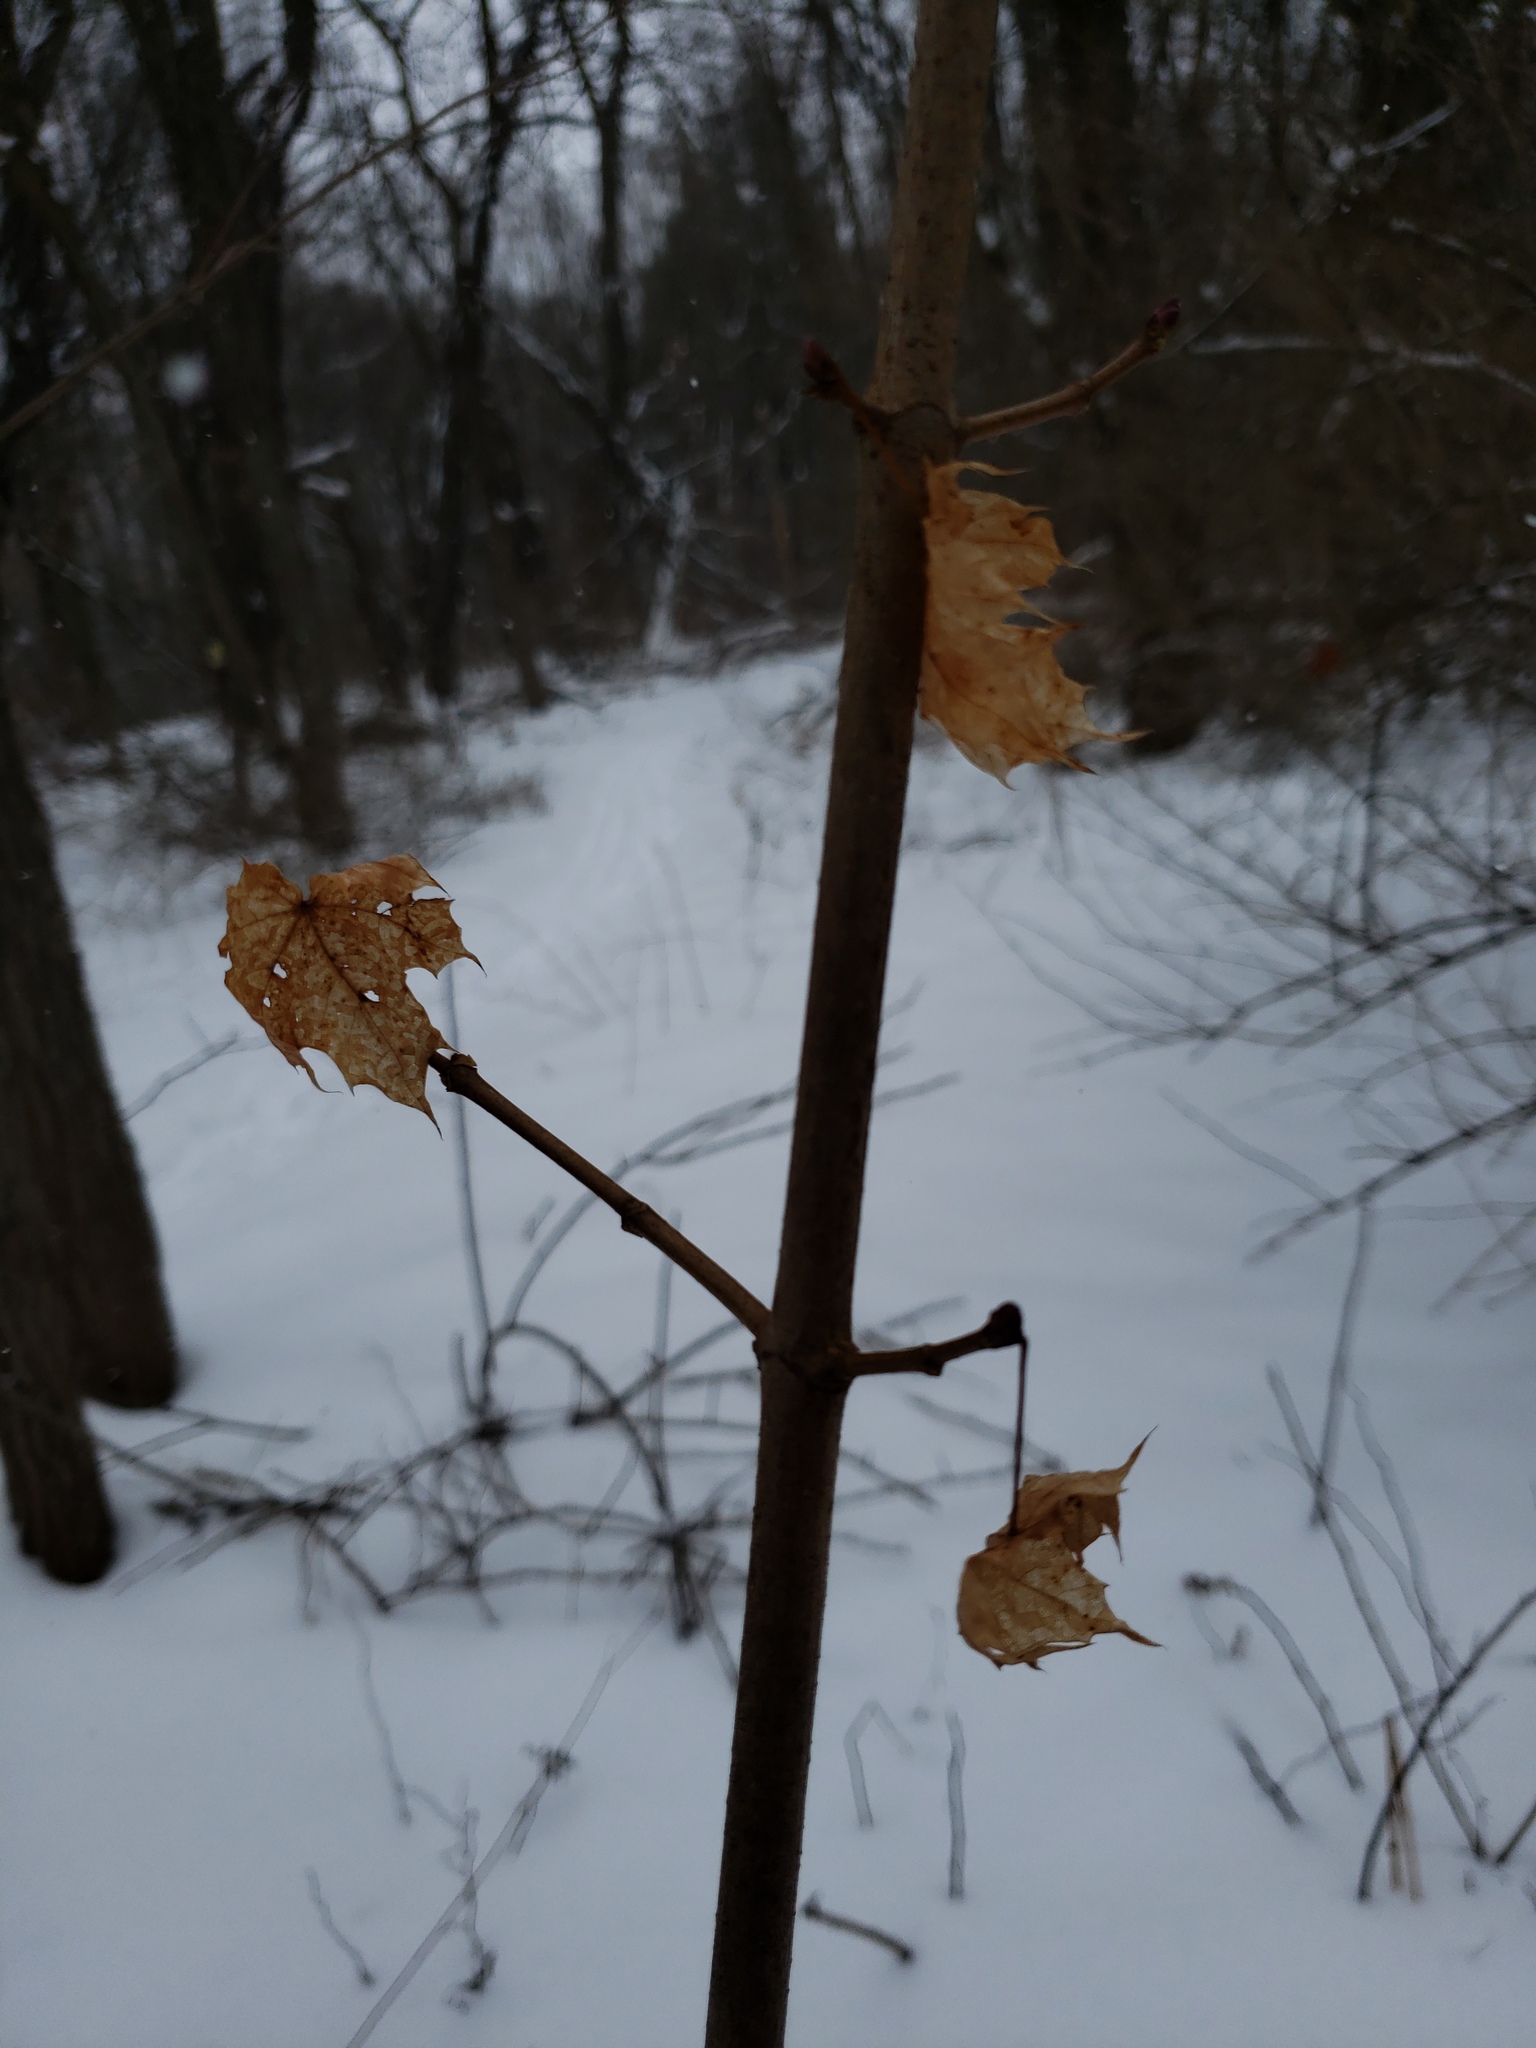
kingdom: Plantae
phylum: Tracheophyta
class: Magnoliopsida
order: Sapindales
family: Sapindaceae
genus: Acer
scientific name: Acer platanoides
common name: Norway maple
